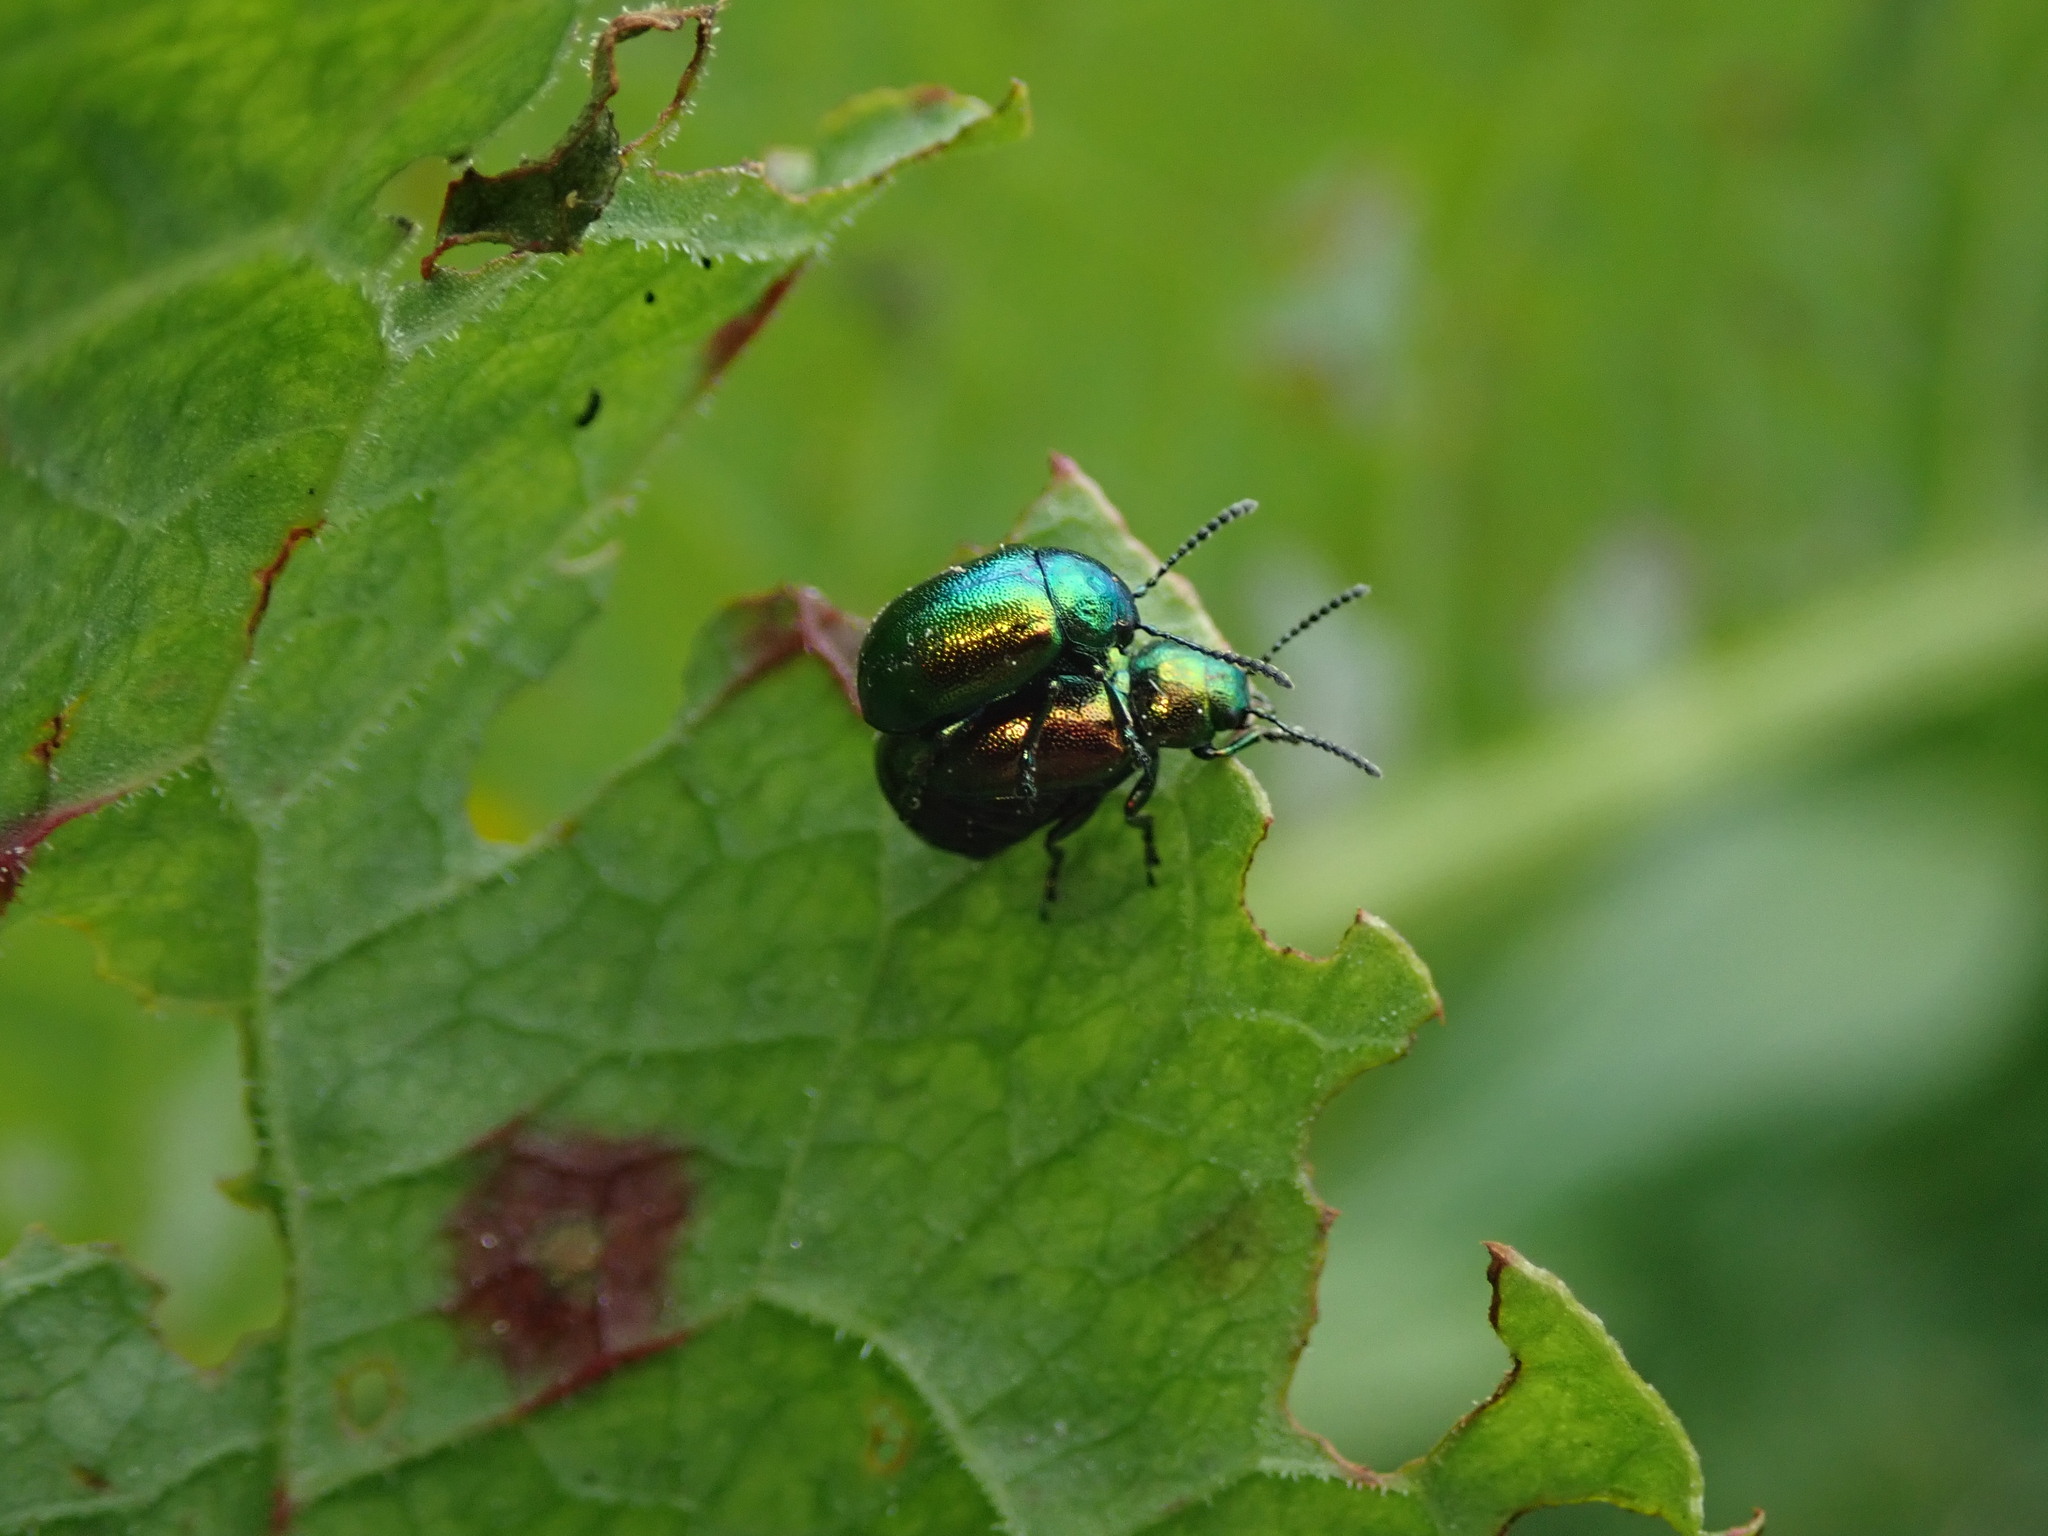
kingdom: Animalia
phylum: Arthropoda
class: Insecta
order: Coleoptera
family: Chrysomelidae
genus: Gastrophysa
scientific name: Gastrophysa viridula
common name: Green dock beetle
